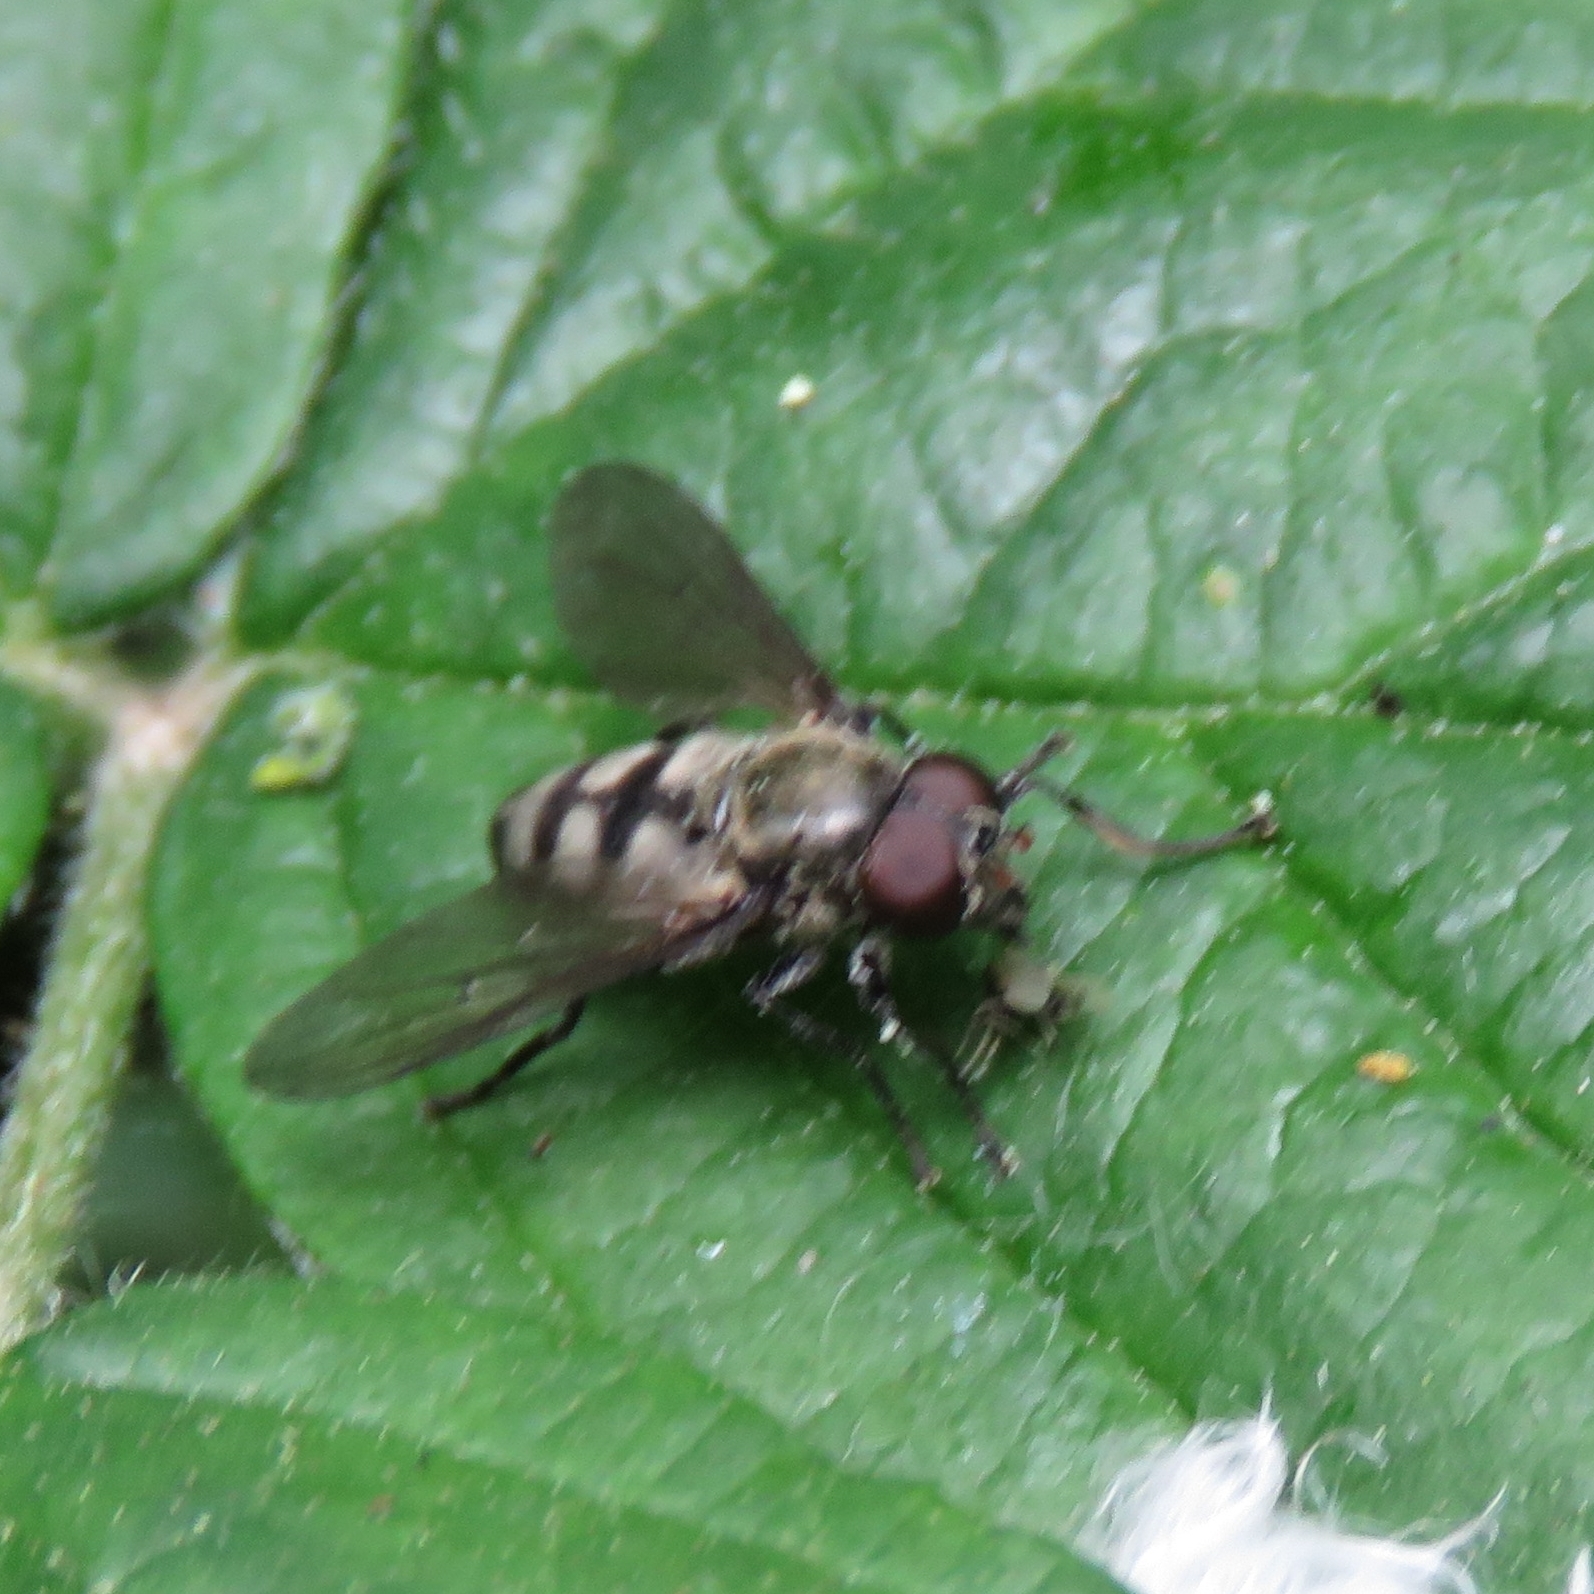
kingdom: Animalia
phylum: Arthropoda
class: Insecta
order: Diptera
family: Syrphidae
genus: Portevinia
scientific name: Portevinia maculata
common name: Ramson's hoverfly
